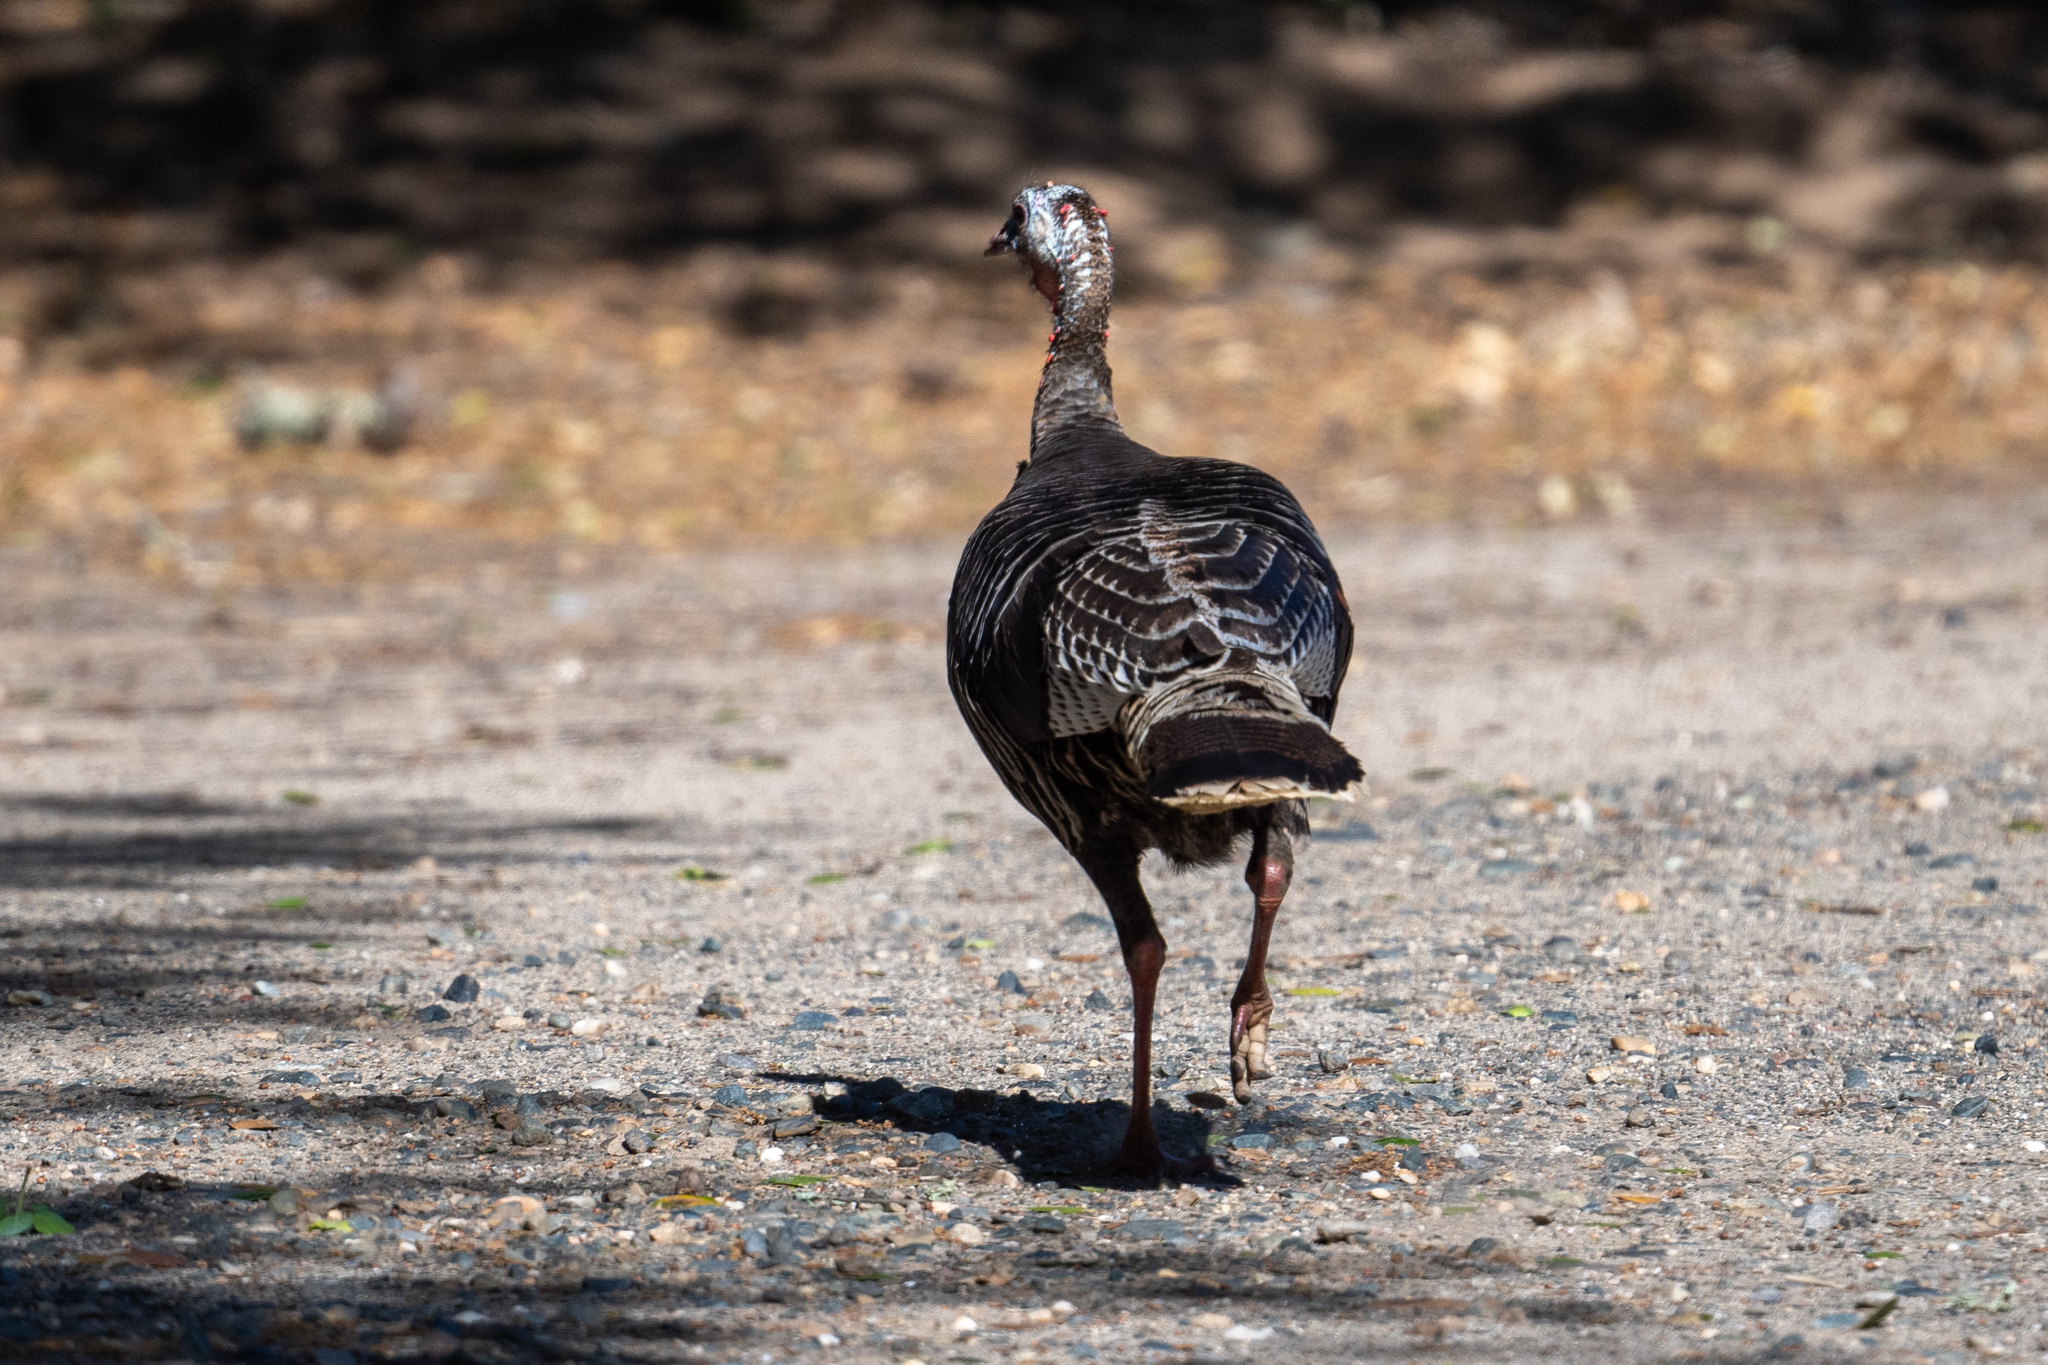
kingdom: Animalia
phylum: Chordata
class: Aves
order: Galliformes
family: Phasianidae
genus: Meleagris
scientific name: Meleagris gallopavo
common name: Wild turkey
